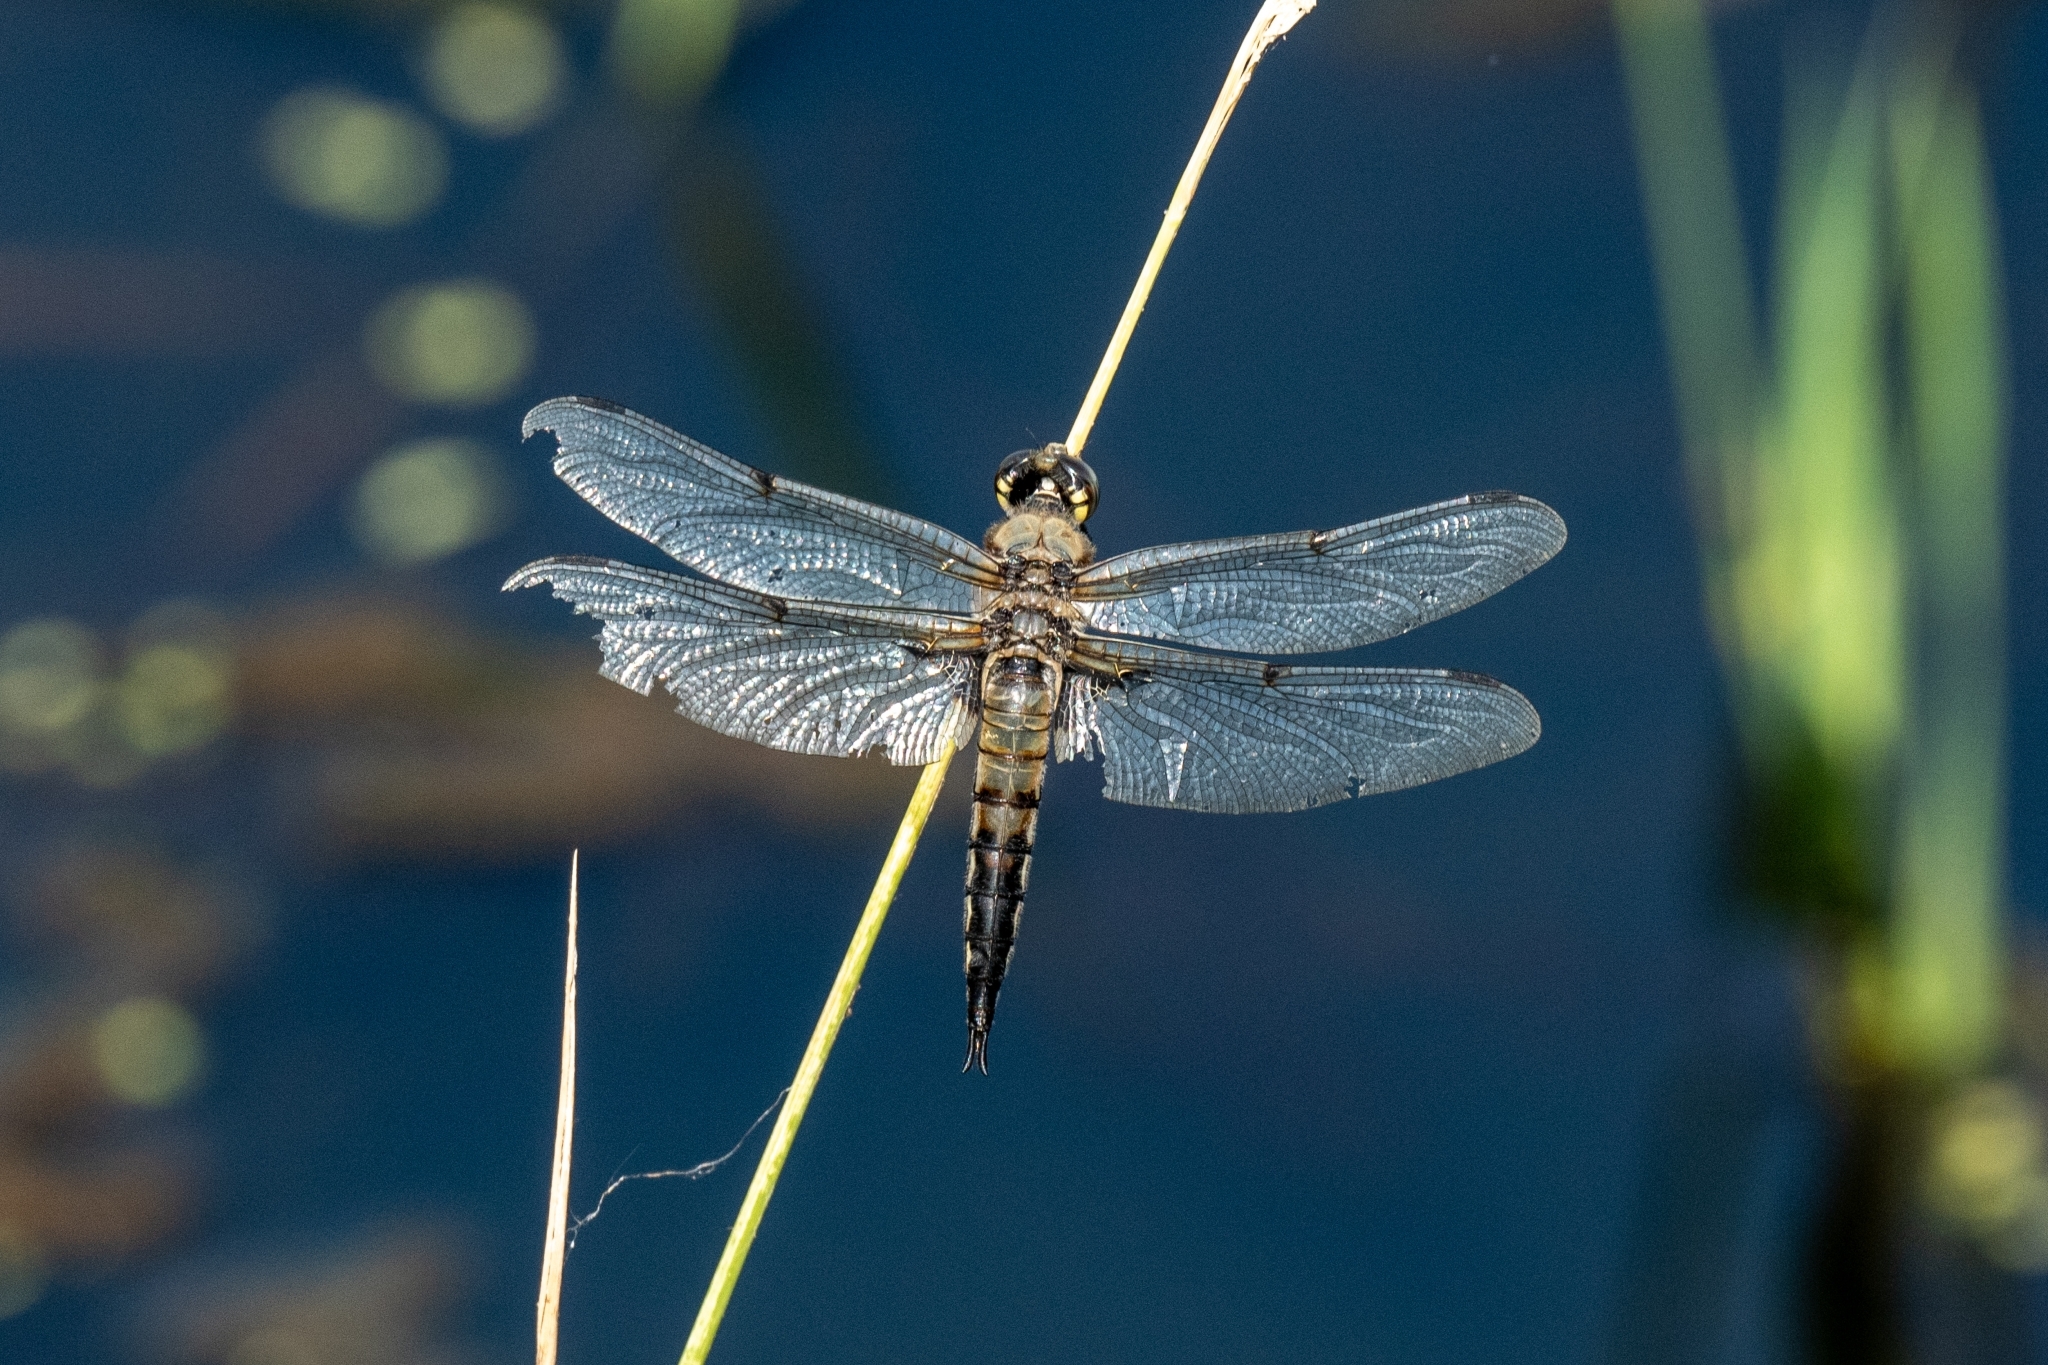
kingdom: Animalia
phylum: Arthropoda
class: Insecta
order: Odonata
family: Libellulidae
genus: Libellula
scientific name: Libellula quadrimaculata
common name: Four-spotted chaser
